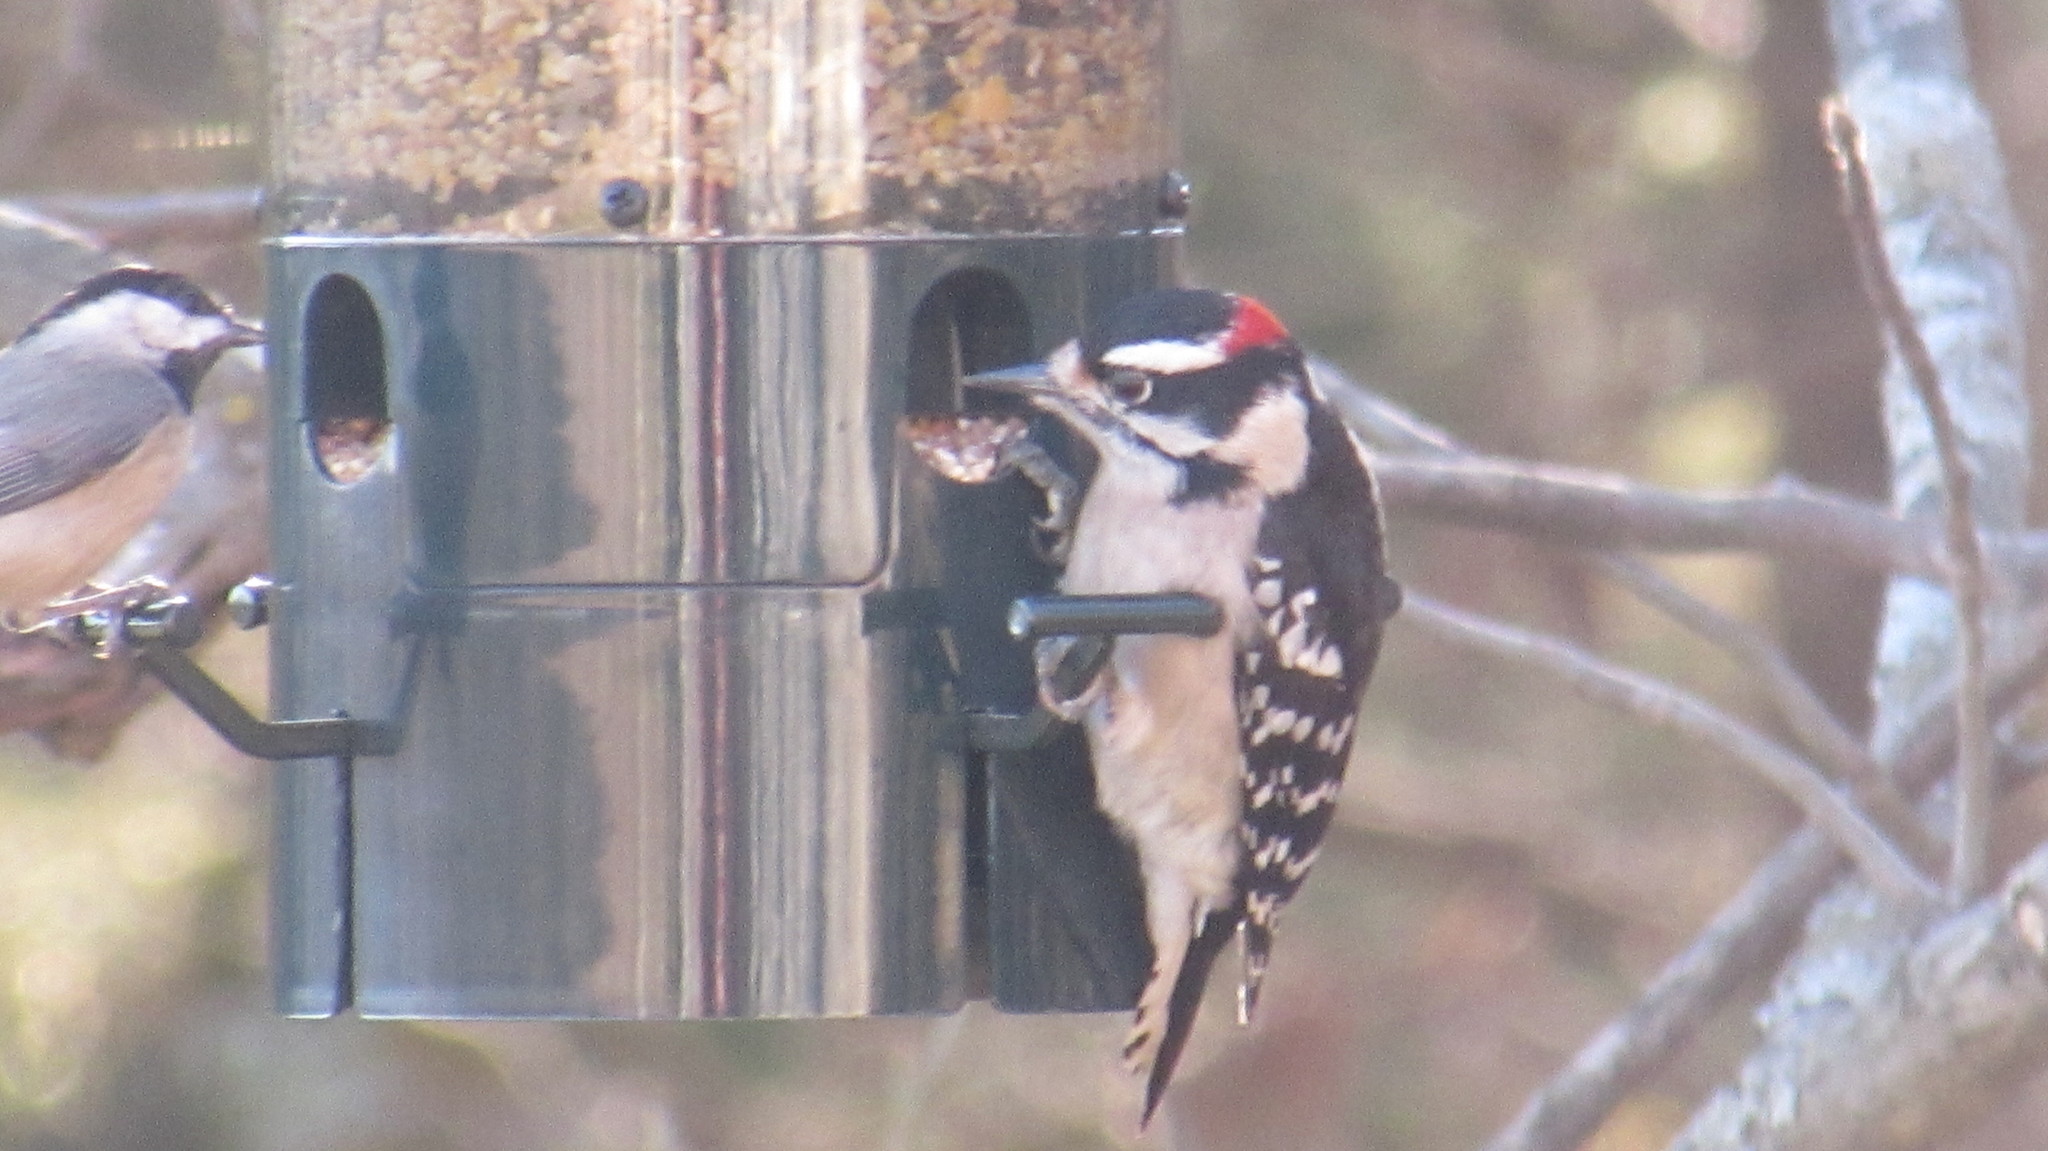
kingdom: Animalia
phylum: Chordata
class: Aves
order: Piciformes
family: Picidae
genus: Dryobates
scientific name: Dryobates pubescens
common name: Downy woodpecker
